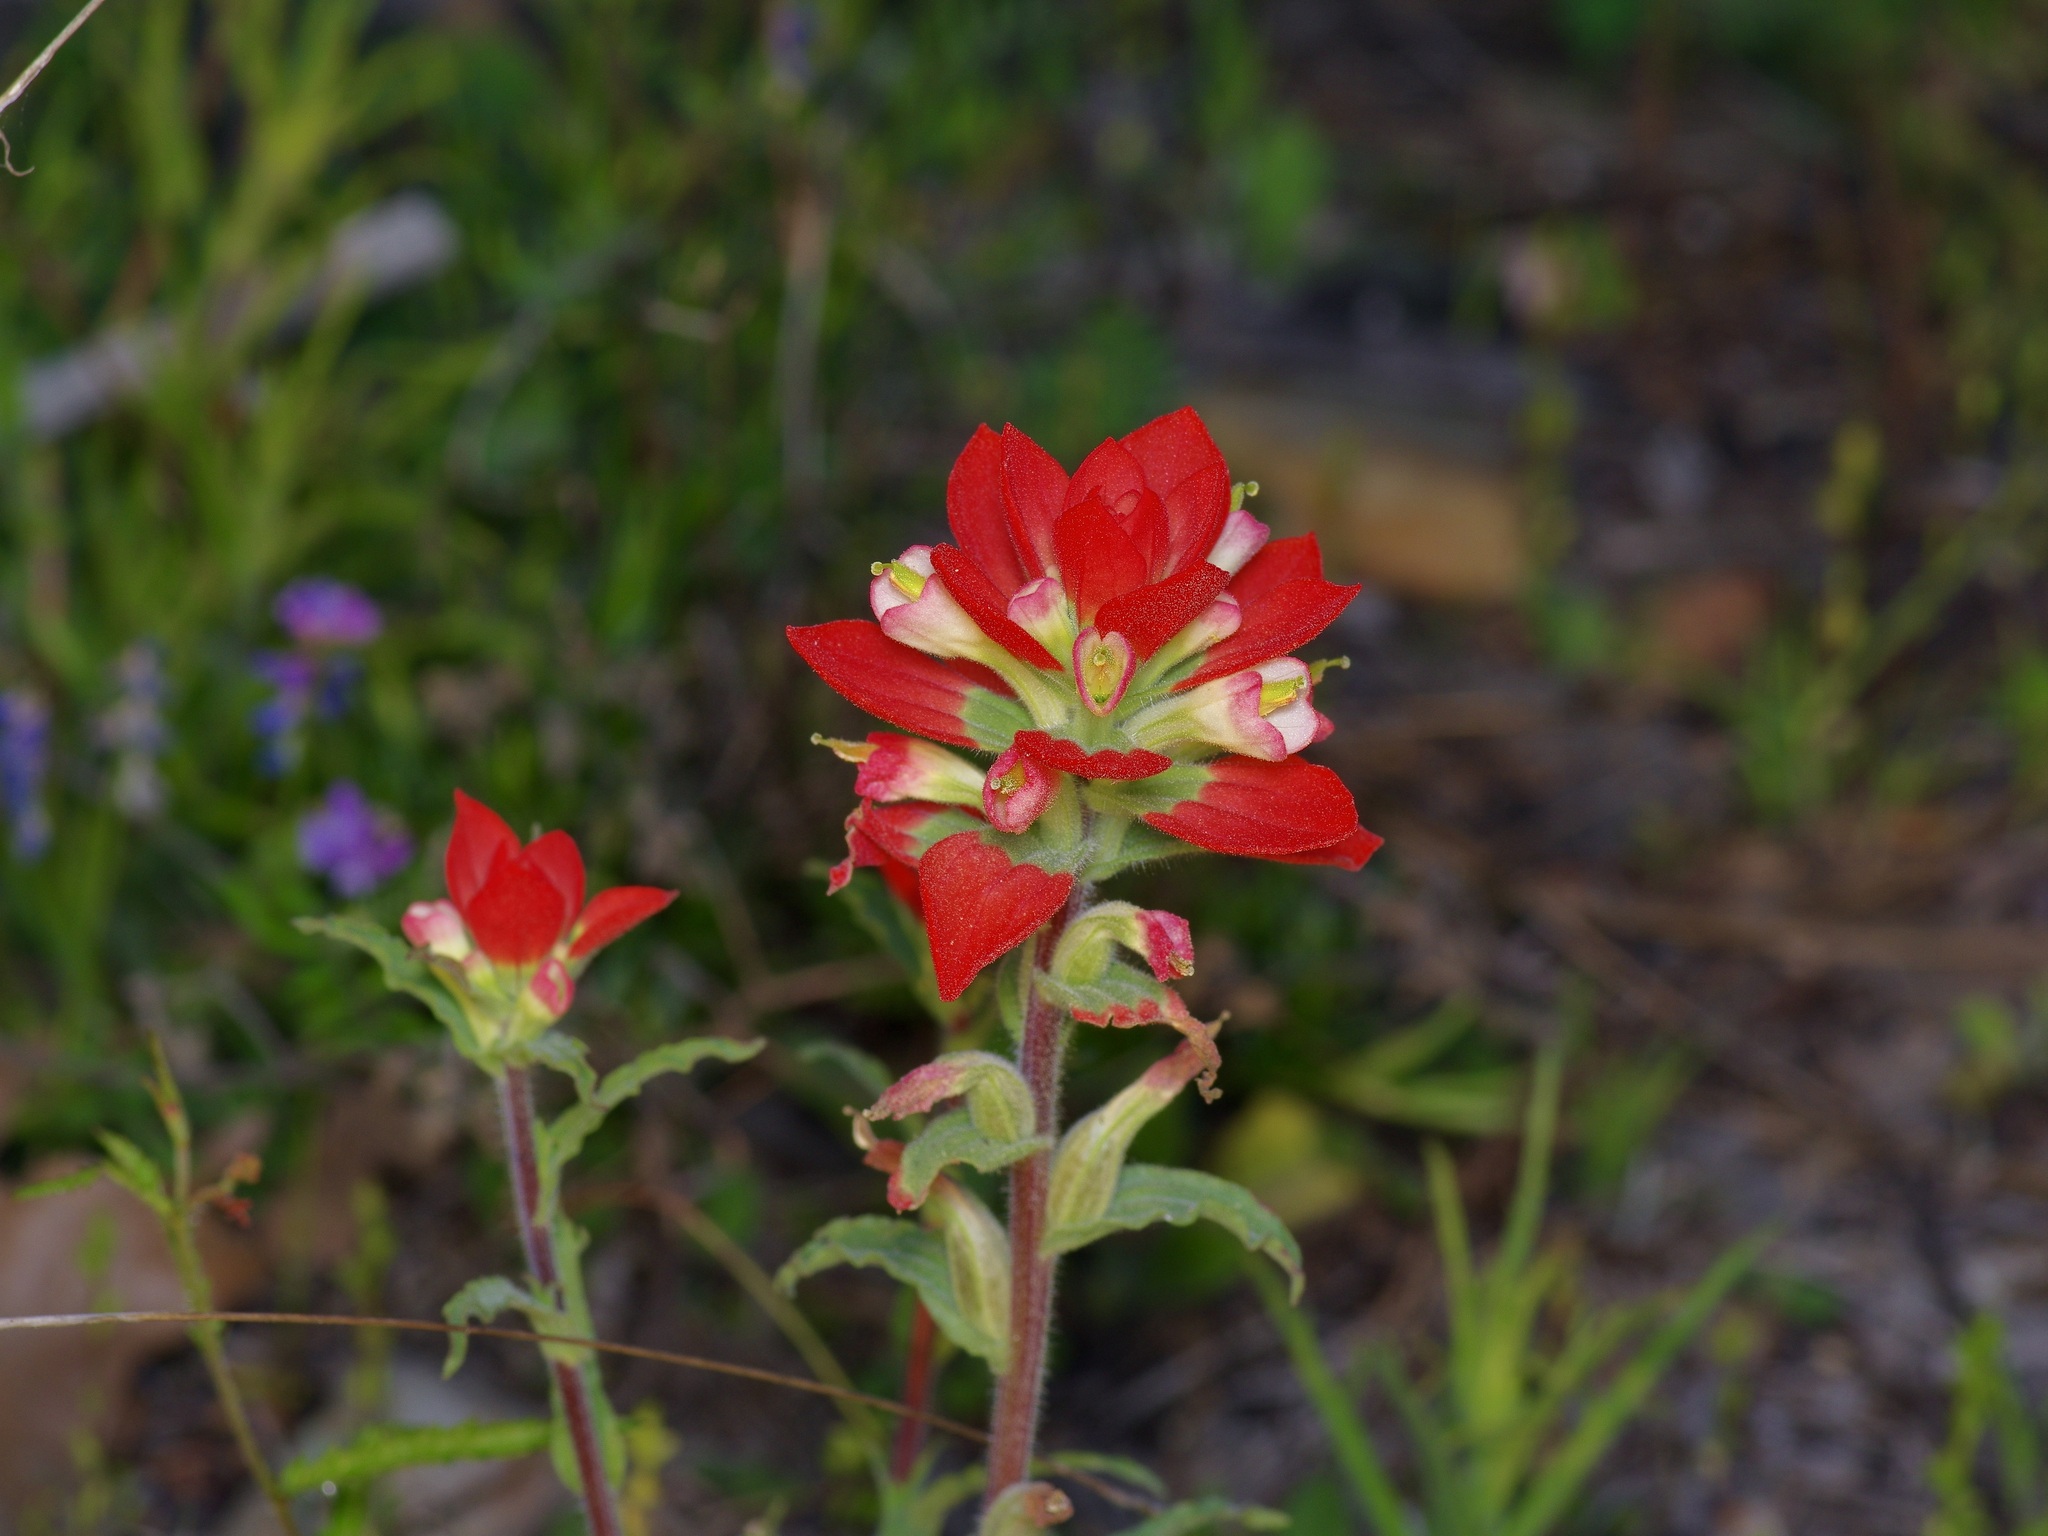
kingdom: Plantae
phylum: Tracheophyta
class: Magnoliopsida
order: Lamiales
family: Orobanchaceae
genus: Castilleja
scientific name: Castilleja indivisa
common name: Texas paintbrush
